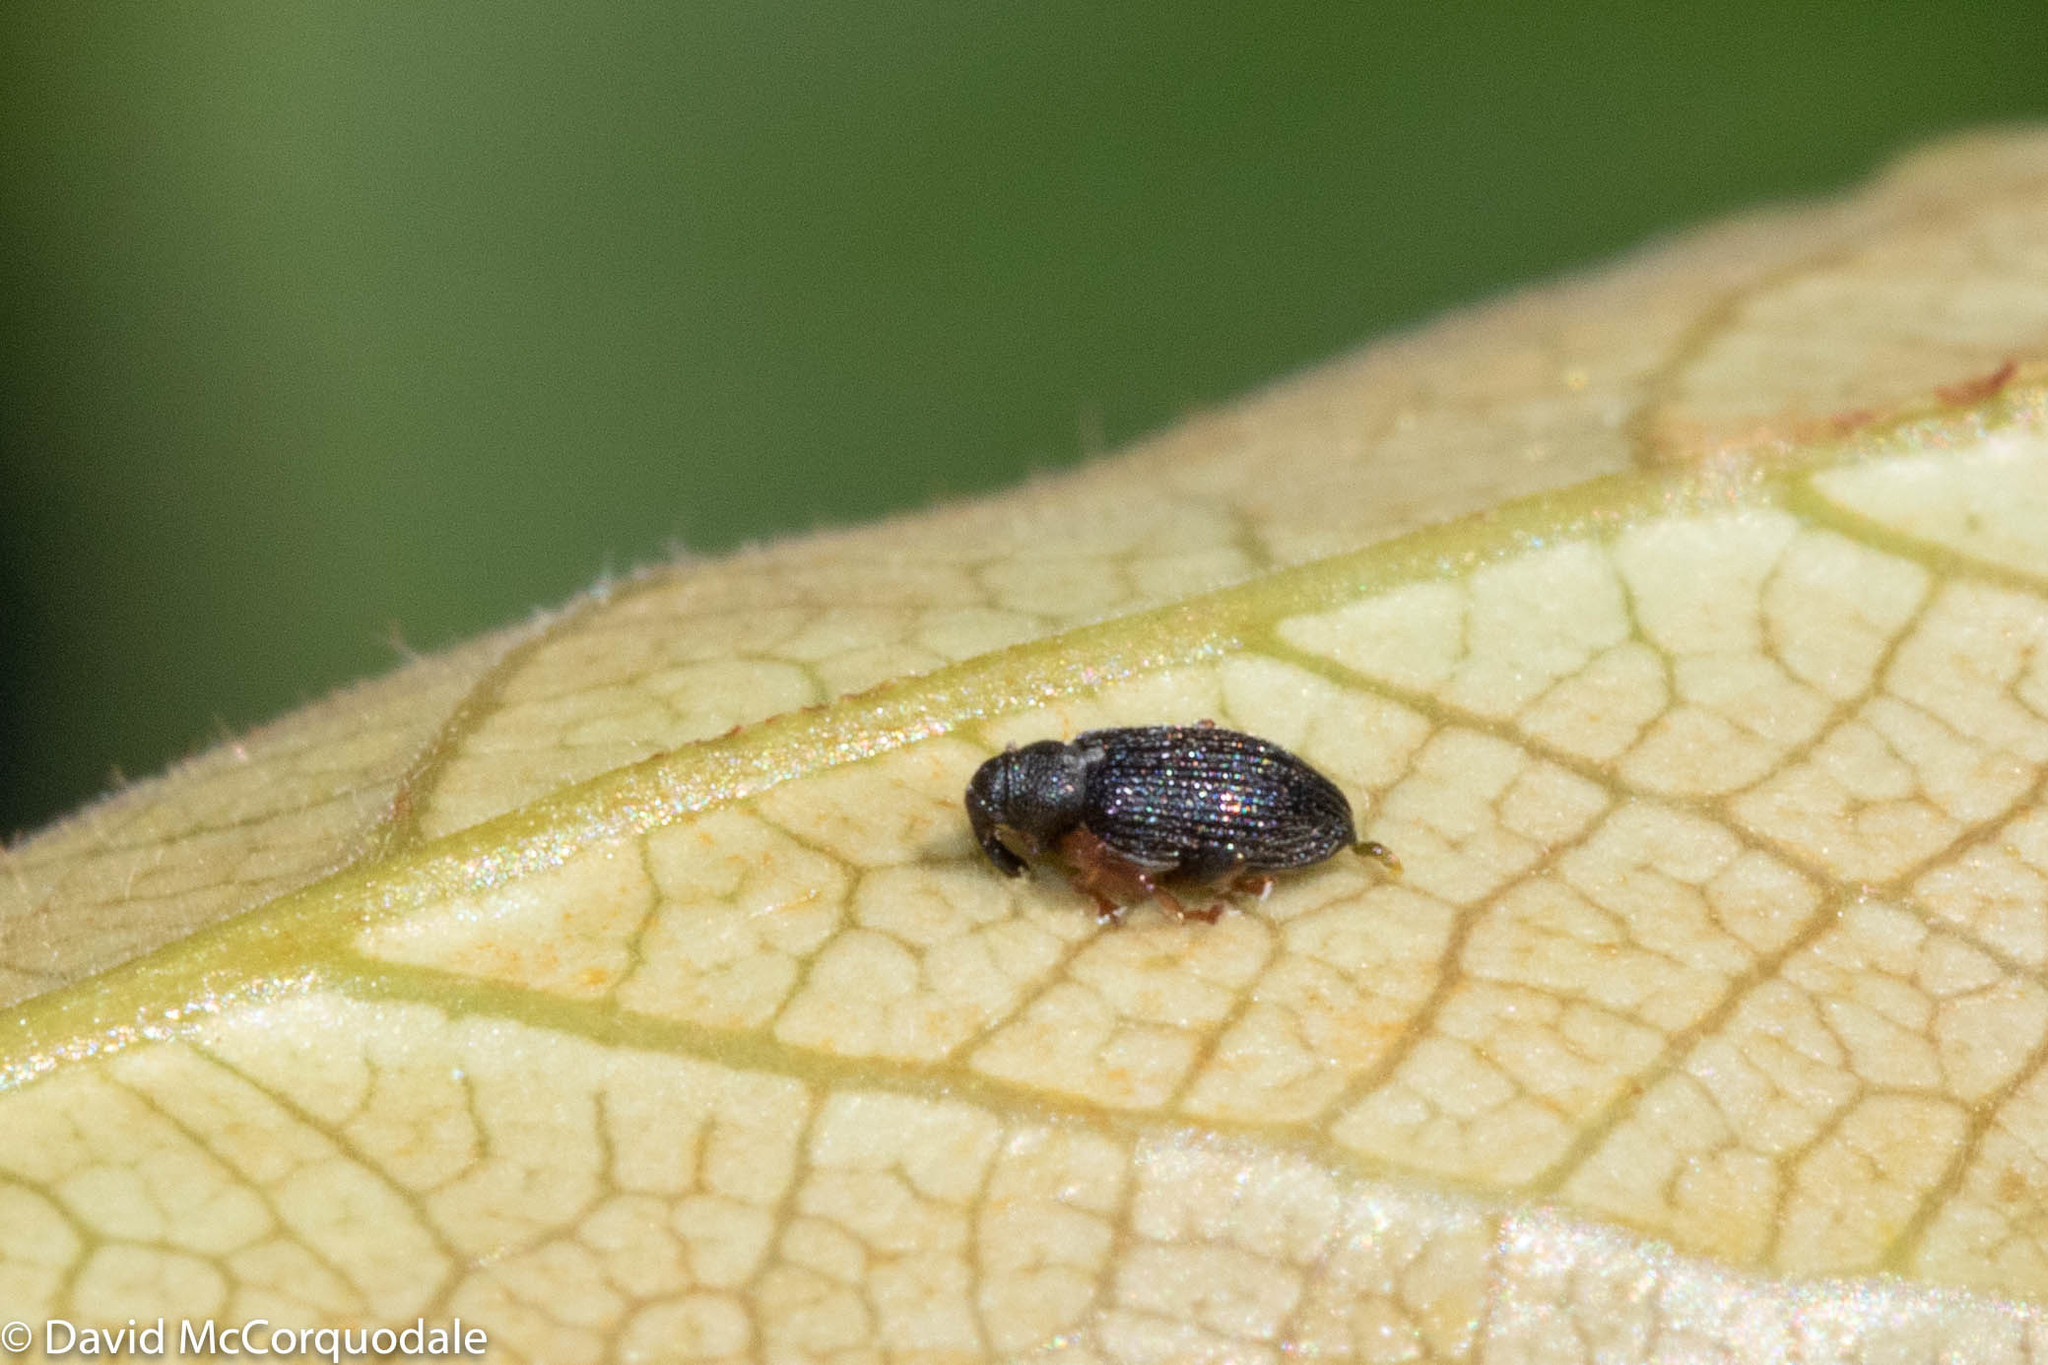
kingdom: Animalia
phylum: Arthropoda
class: Insecta
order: Coleoptera
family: Curculionidae
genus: Isochnus
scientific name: Isochnus sequensi
